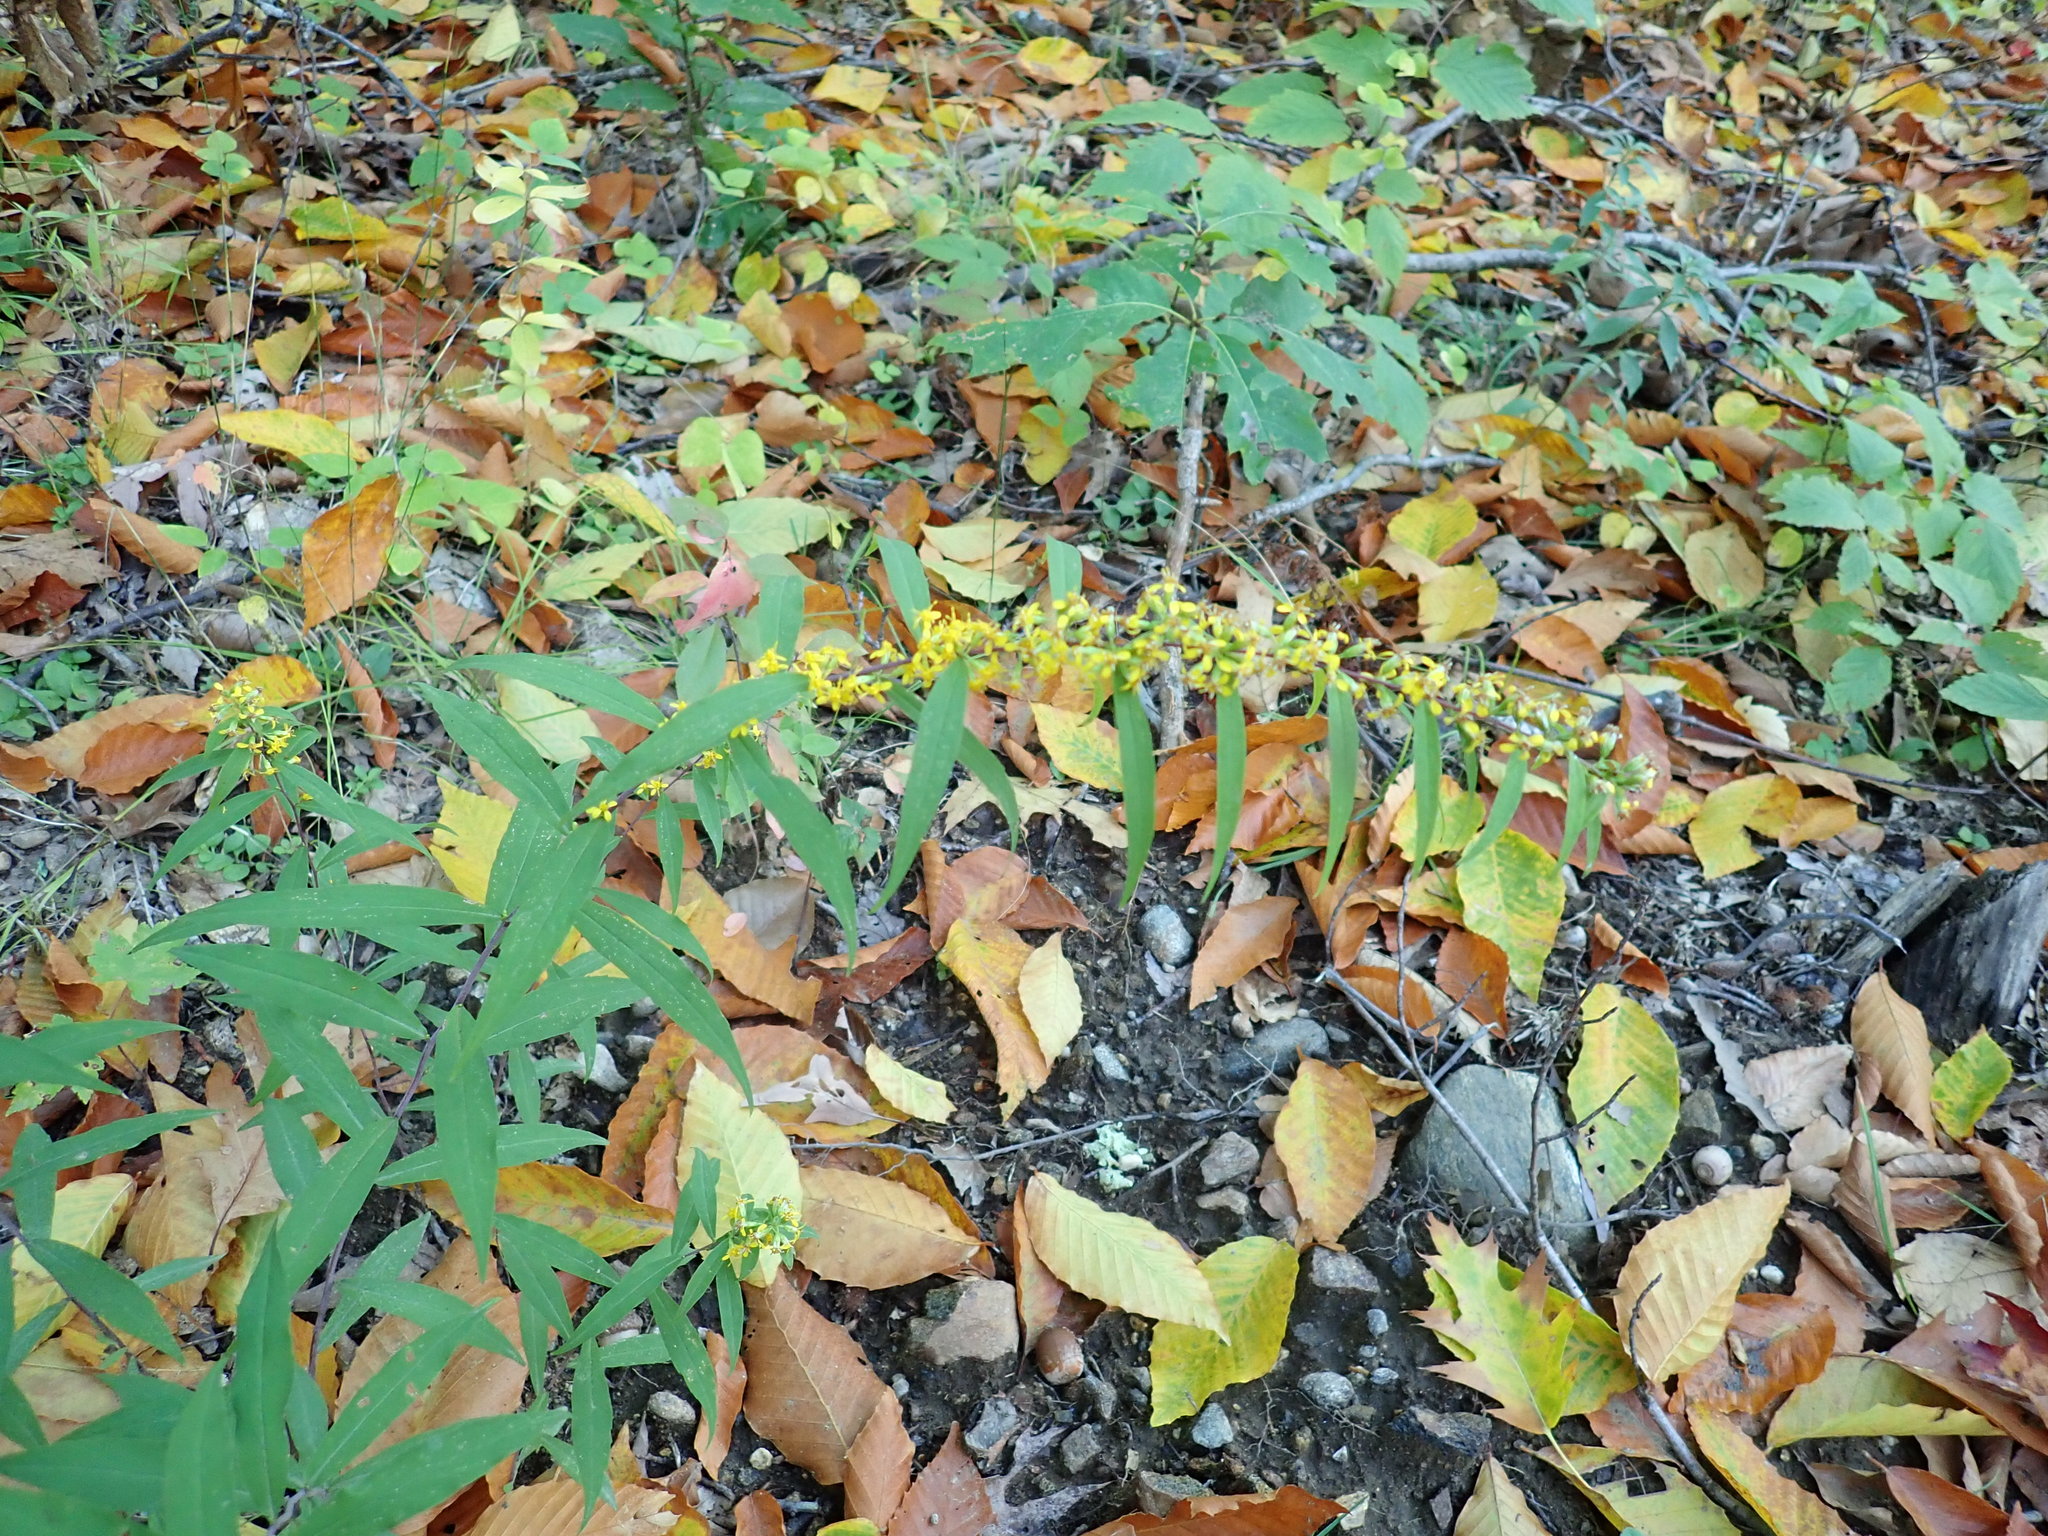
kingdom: Plantae
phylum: Tracheophyta
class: Magnoliopsida
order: Asterales
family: Asteraceae
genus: Solidago
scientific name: Solidago caesia
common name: Woodland goldenrod
